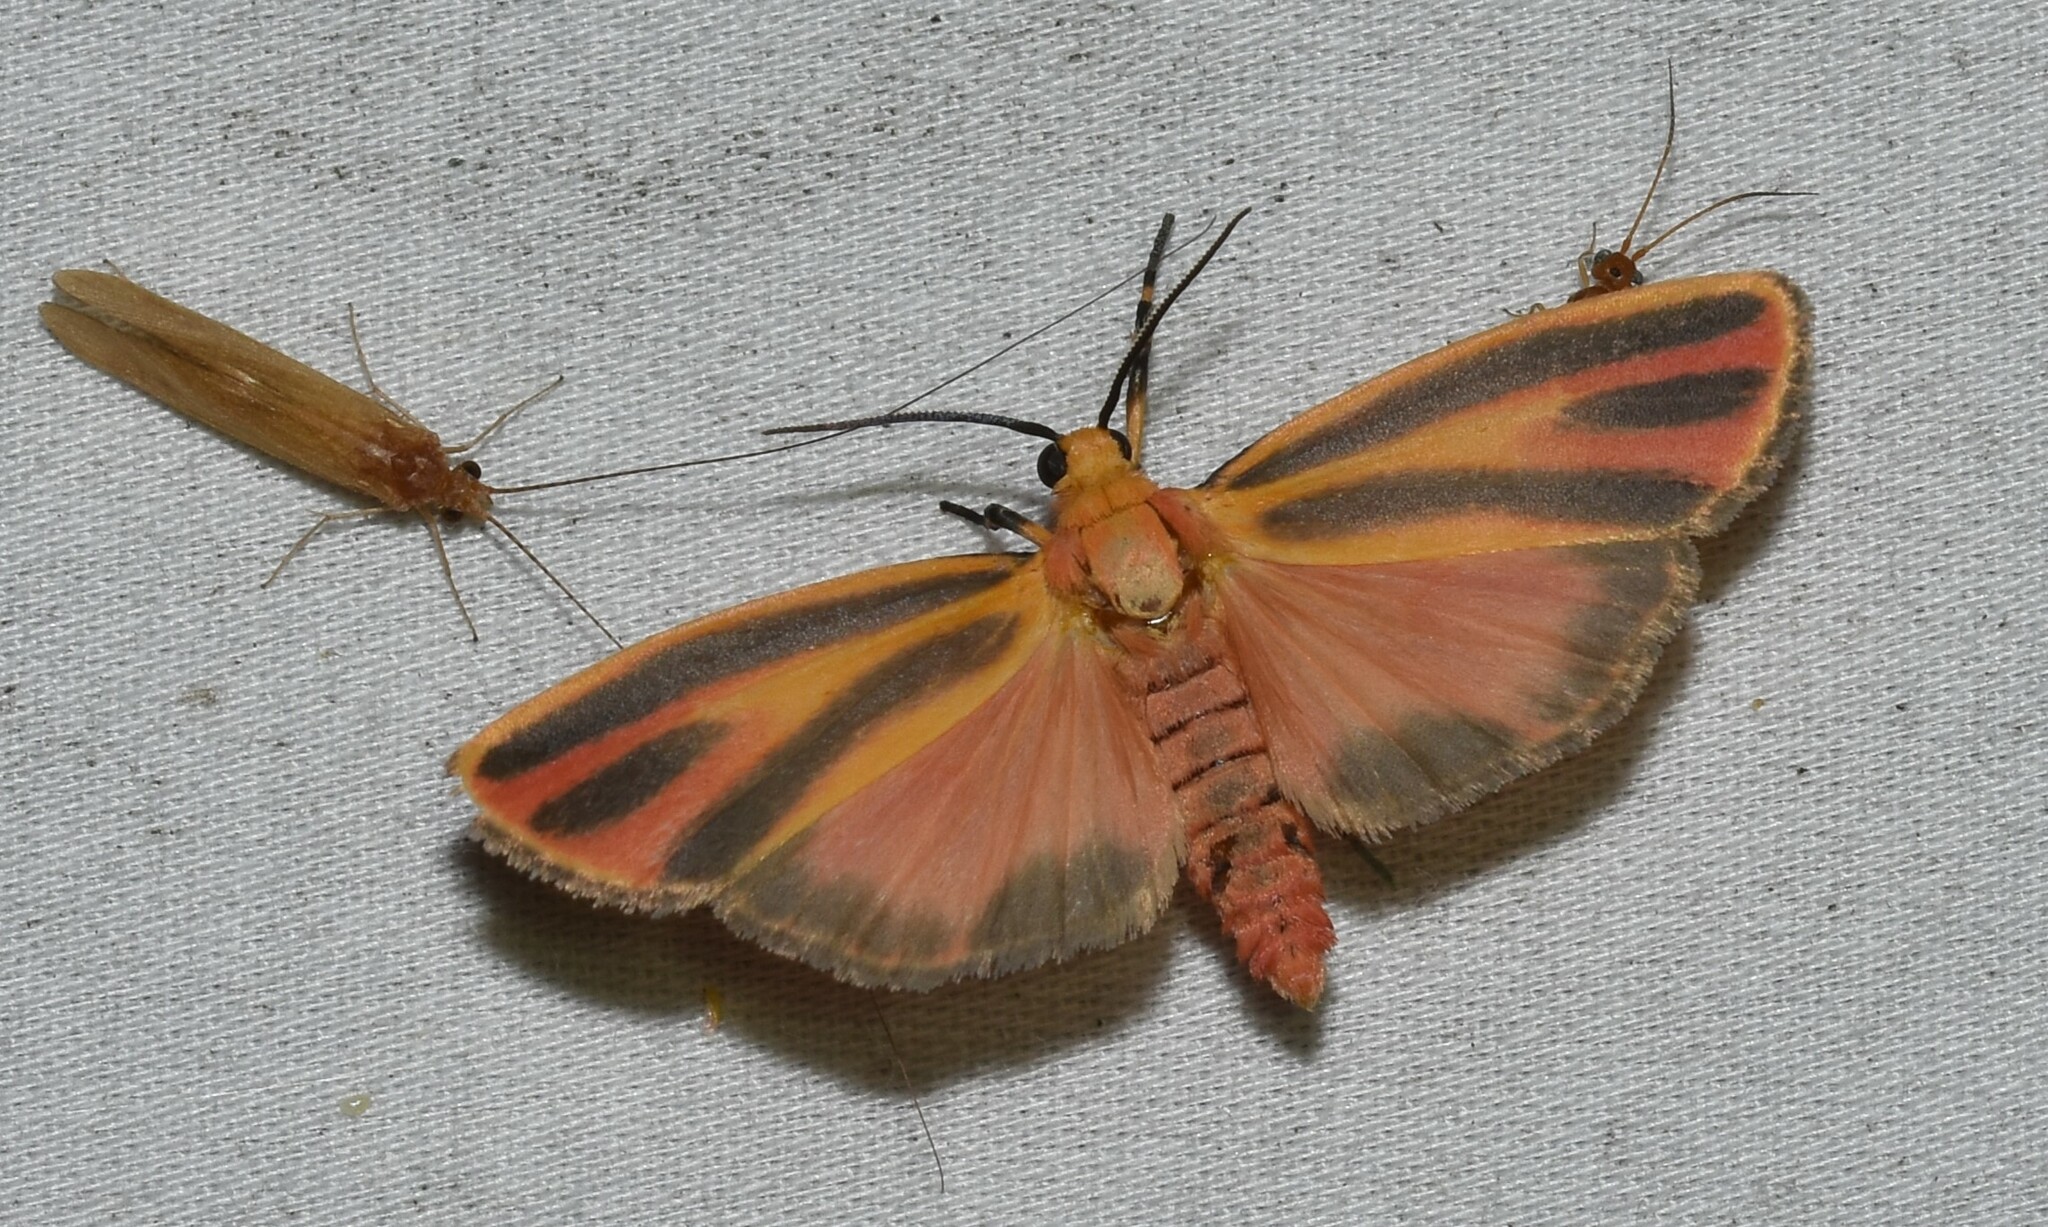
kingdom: Animalia
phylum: Arthropoda
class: Insecta
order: Lepidoptera
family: Erebidae
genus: Hypoprepia
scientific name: Hypoprepia fucosa
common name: Painted lichen moth
